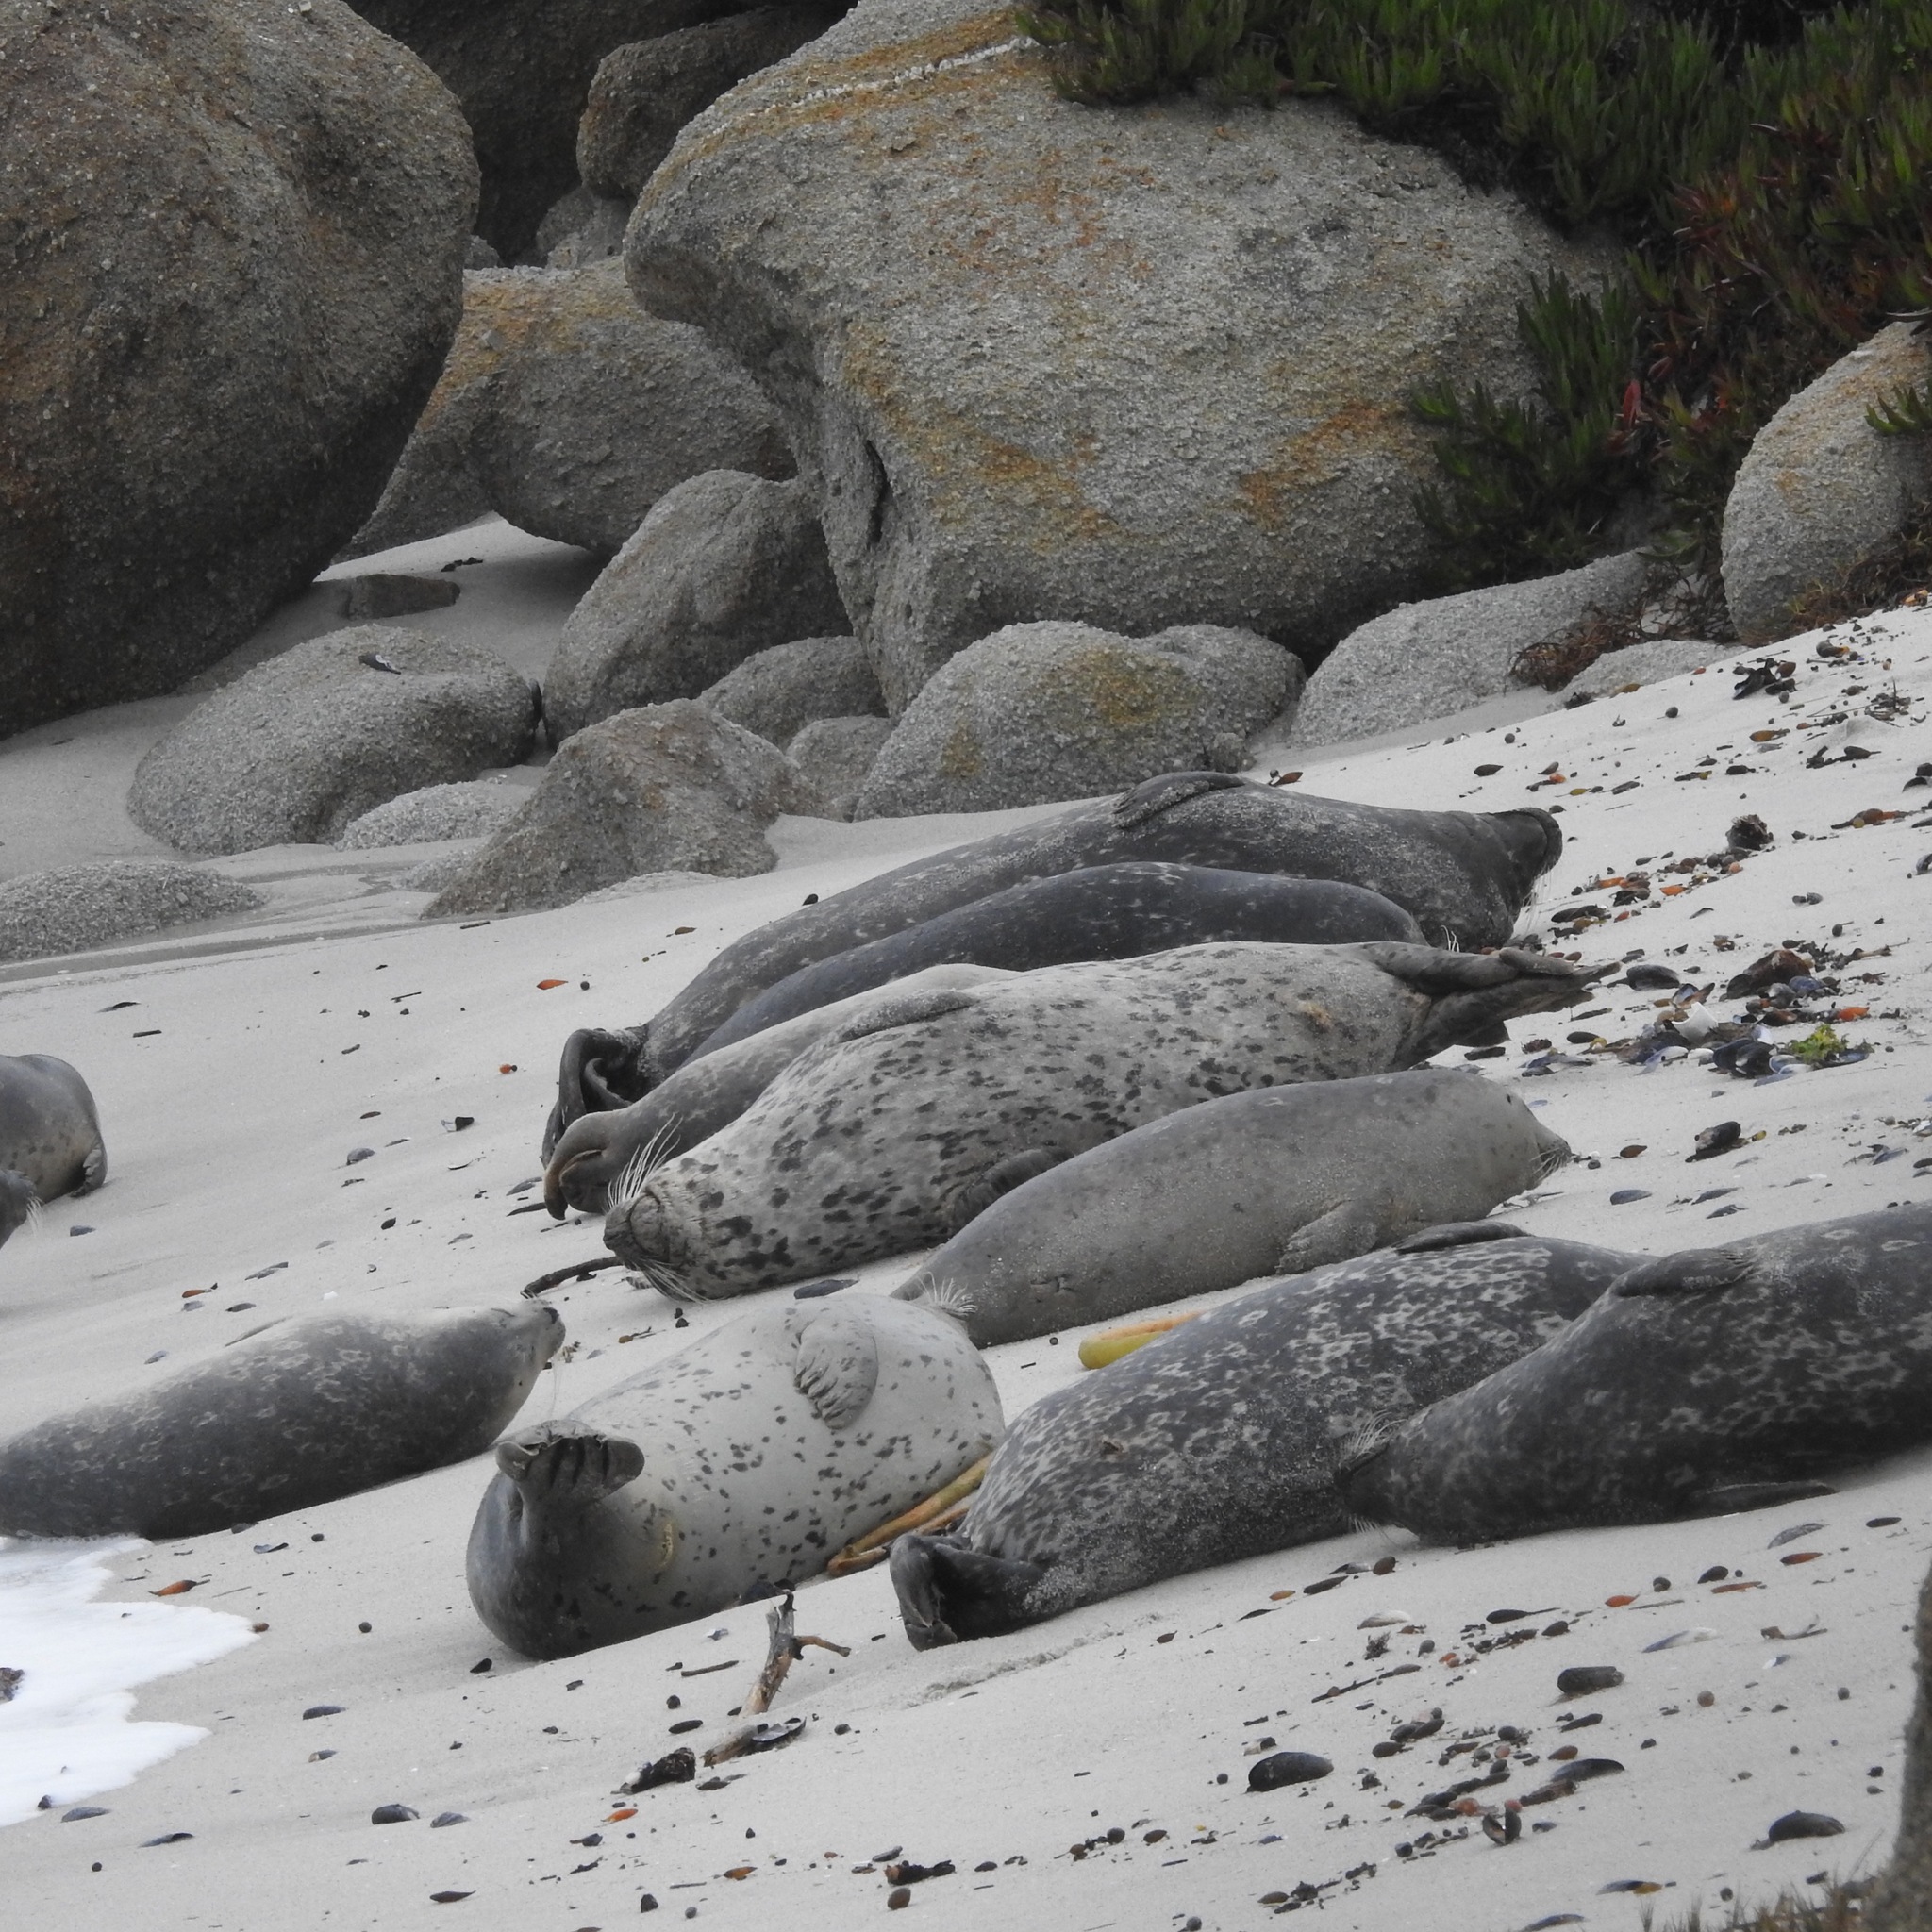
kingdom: Animalia
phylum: Chordata
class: Mammalia
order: Carnivora
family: Phocidae
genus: Phoca
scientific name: Phoca vitulina
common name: Harbor seal
